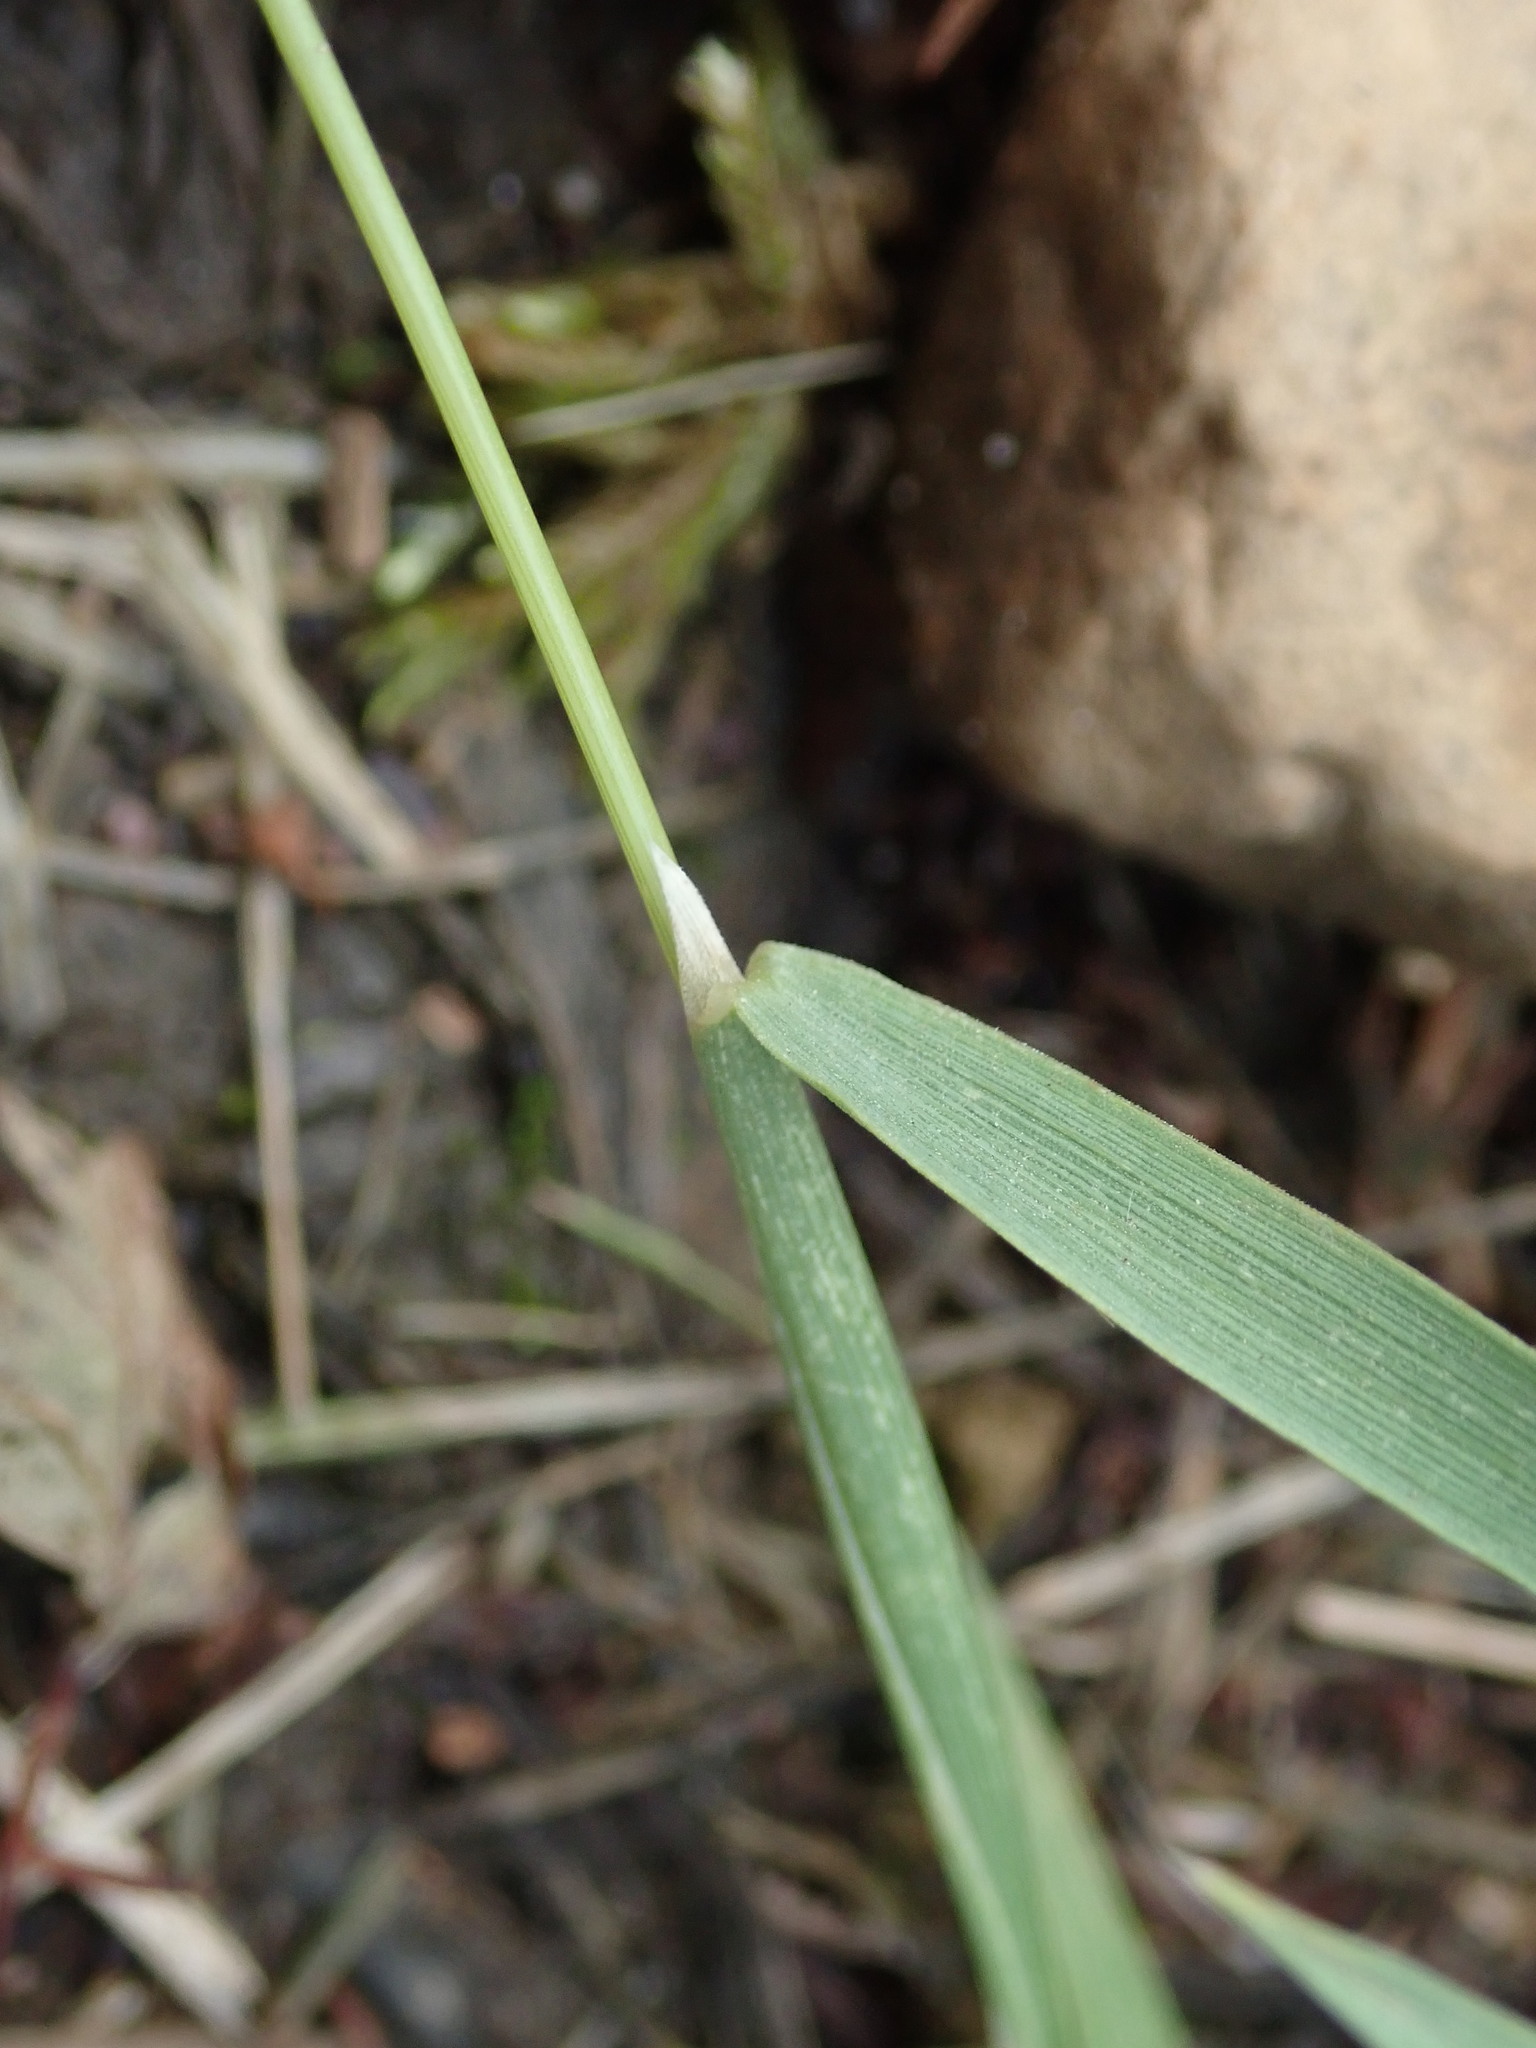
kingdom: Plantae
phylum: Tracheophyta
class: Liliopsida
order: Poales
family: Poaceae
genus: Polypogon
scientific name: Polypogon monspeliensis
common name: Annual rabbitsfoot grass
